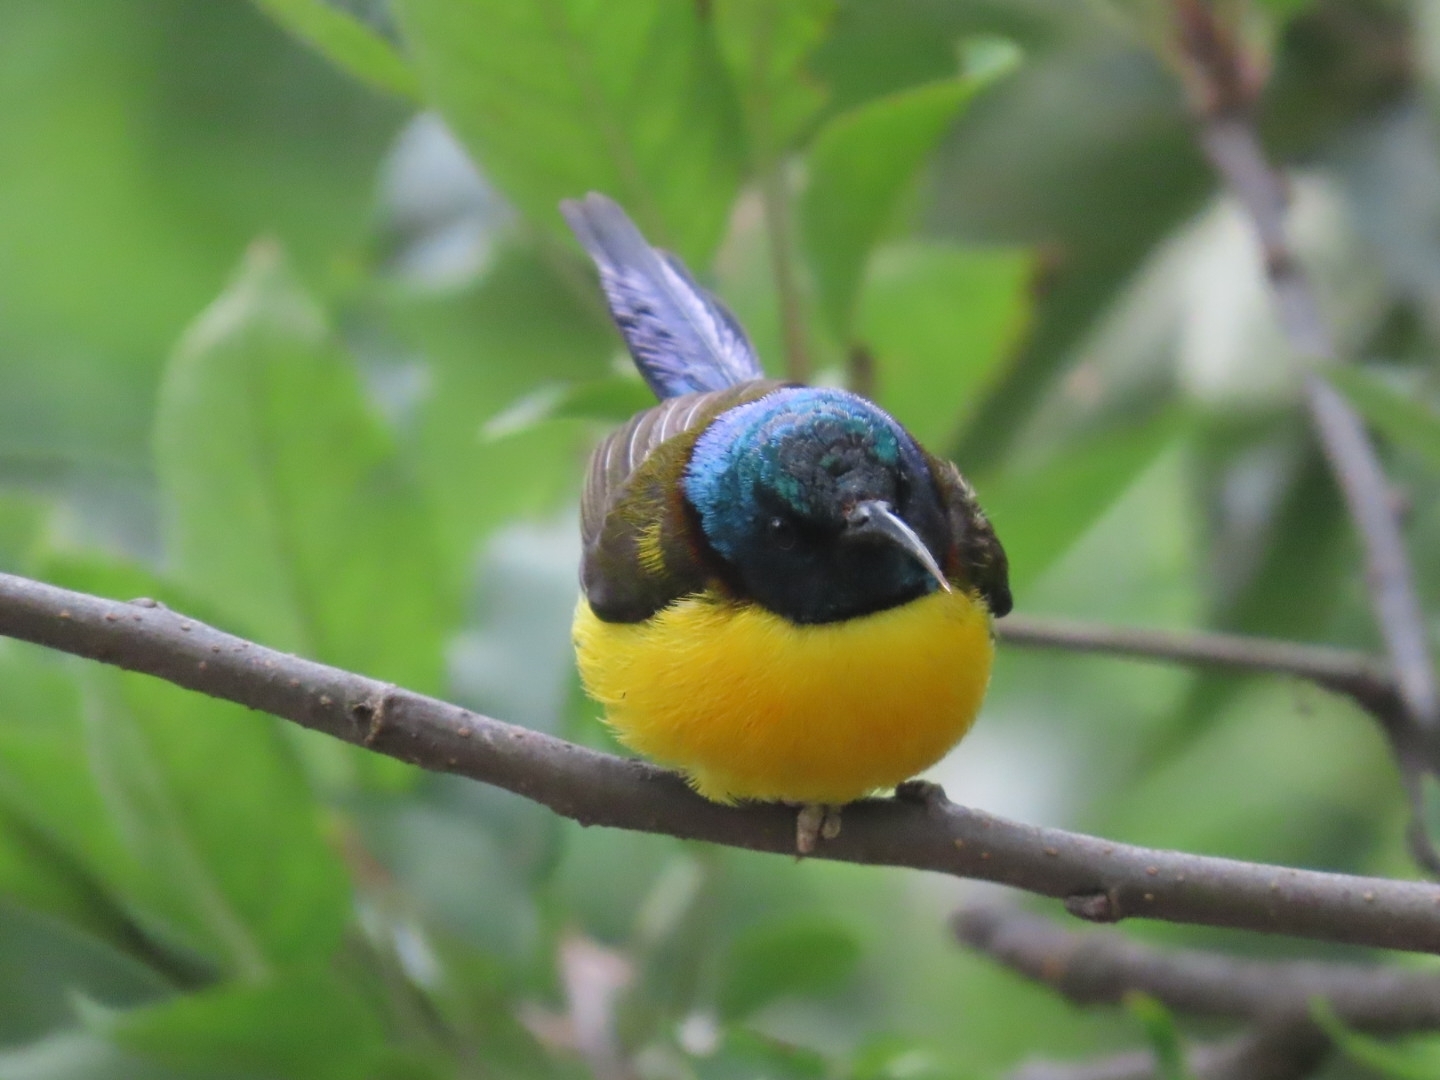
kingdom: Animalia
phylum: Chordata
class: Aves
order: Passeriformes
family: Nectariniidae
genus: Aethopyga
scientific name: Aethopyga nipalensis
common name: Green-tailed sunbird
